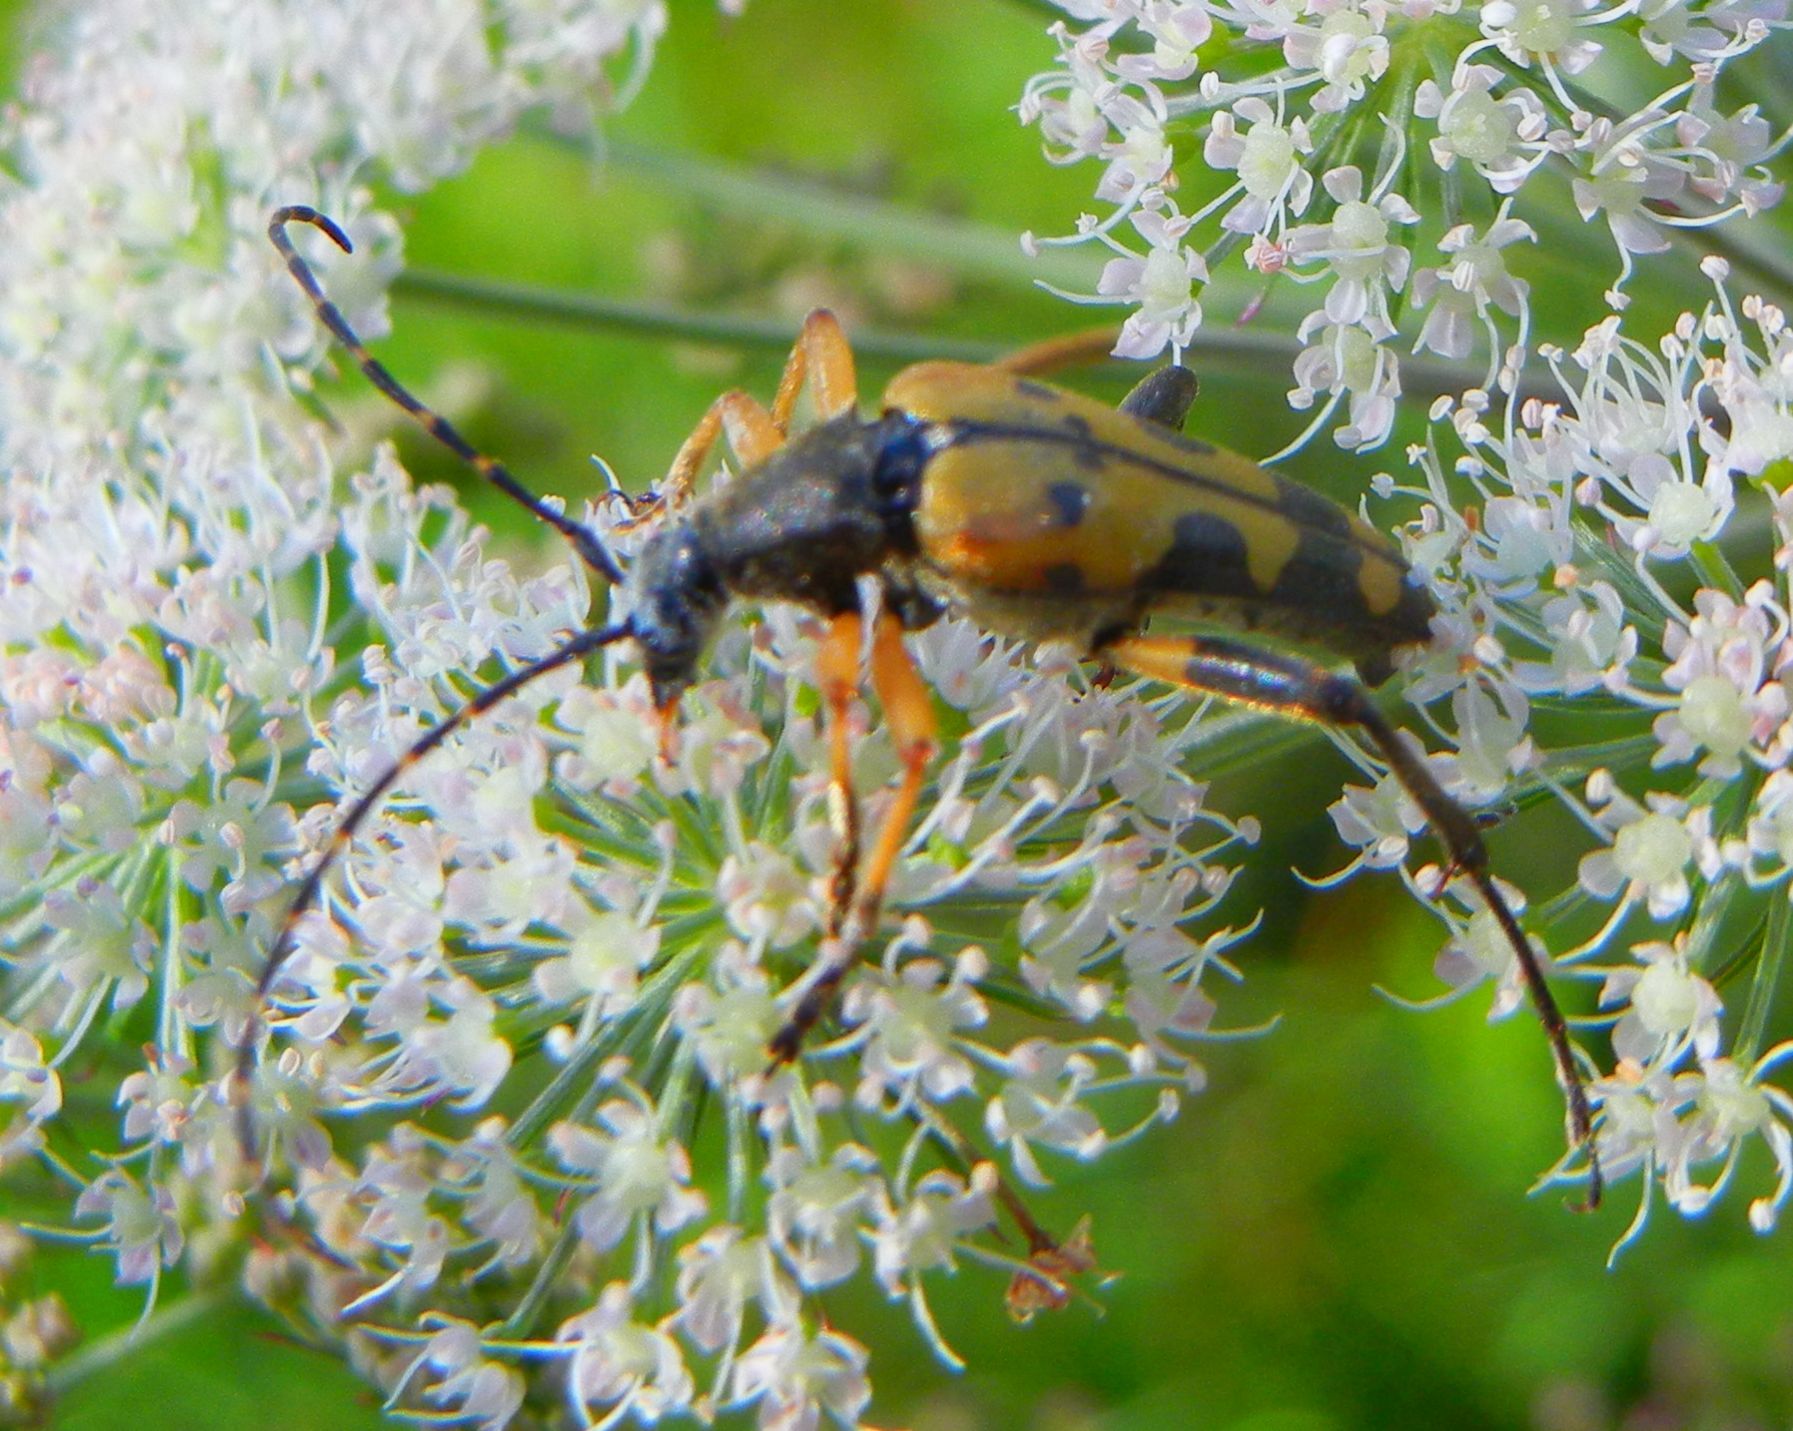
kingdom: Animalia
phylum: Arthropoda
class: Insecta
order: Coleoptera
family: Cerambycidae
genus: Rutpela
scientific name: Rutpela maculata
